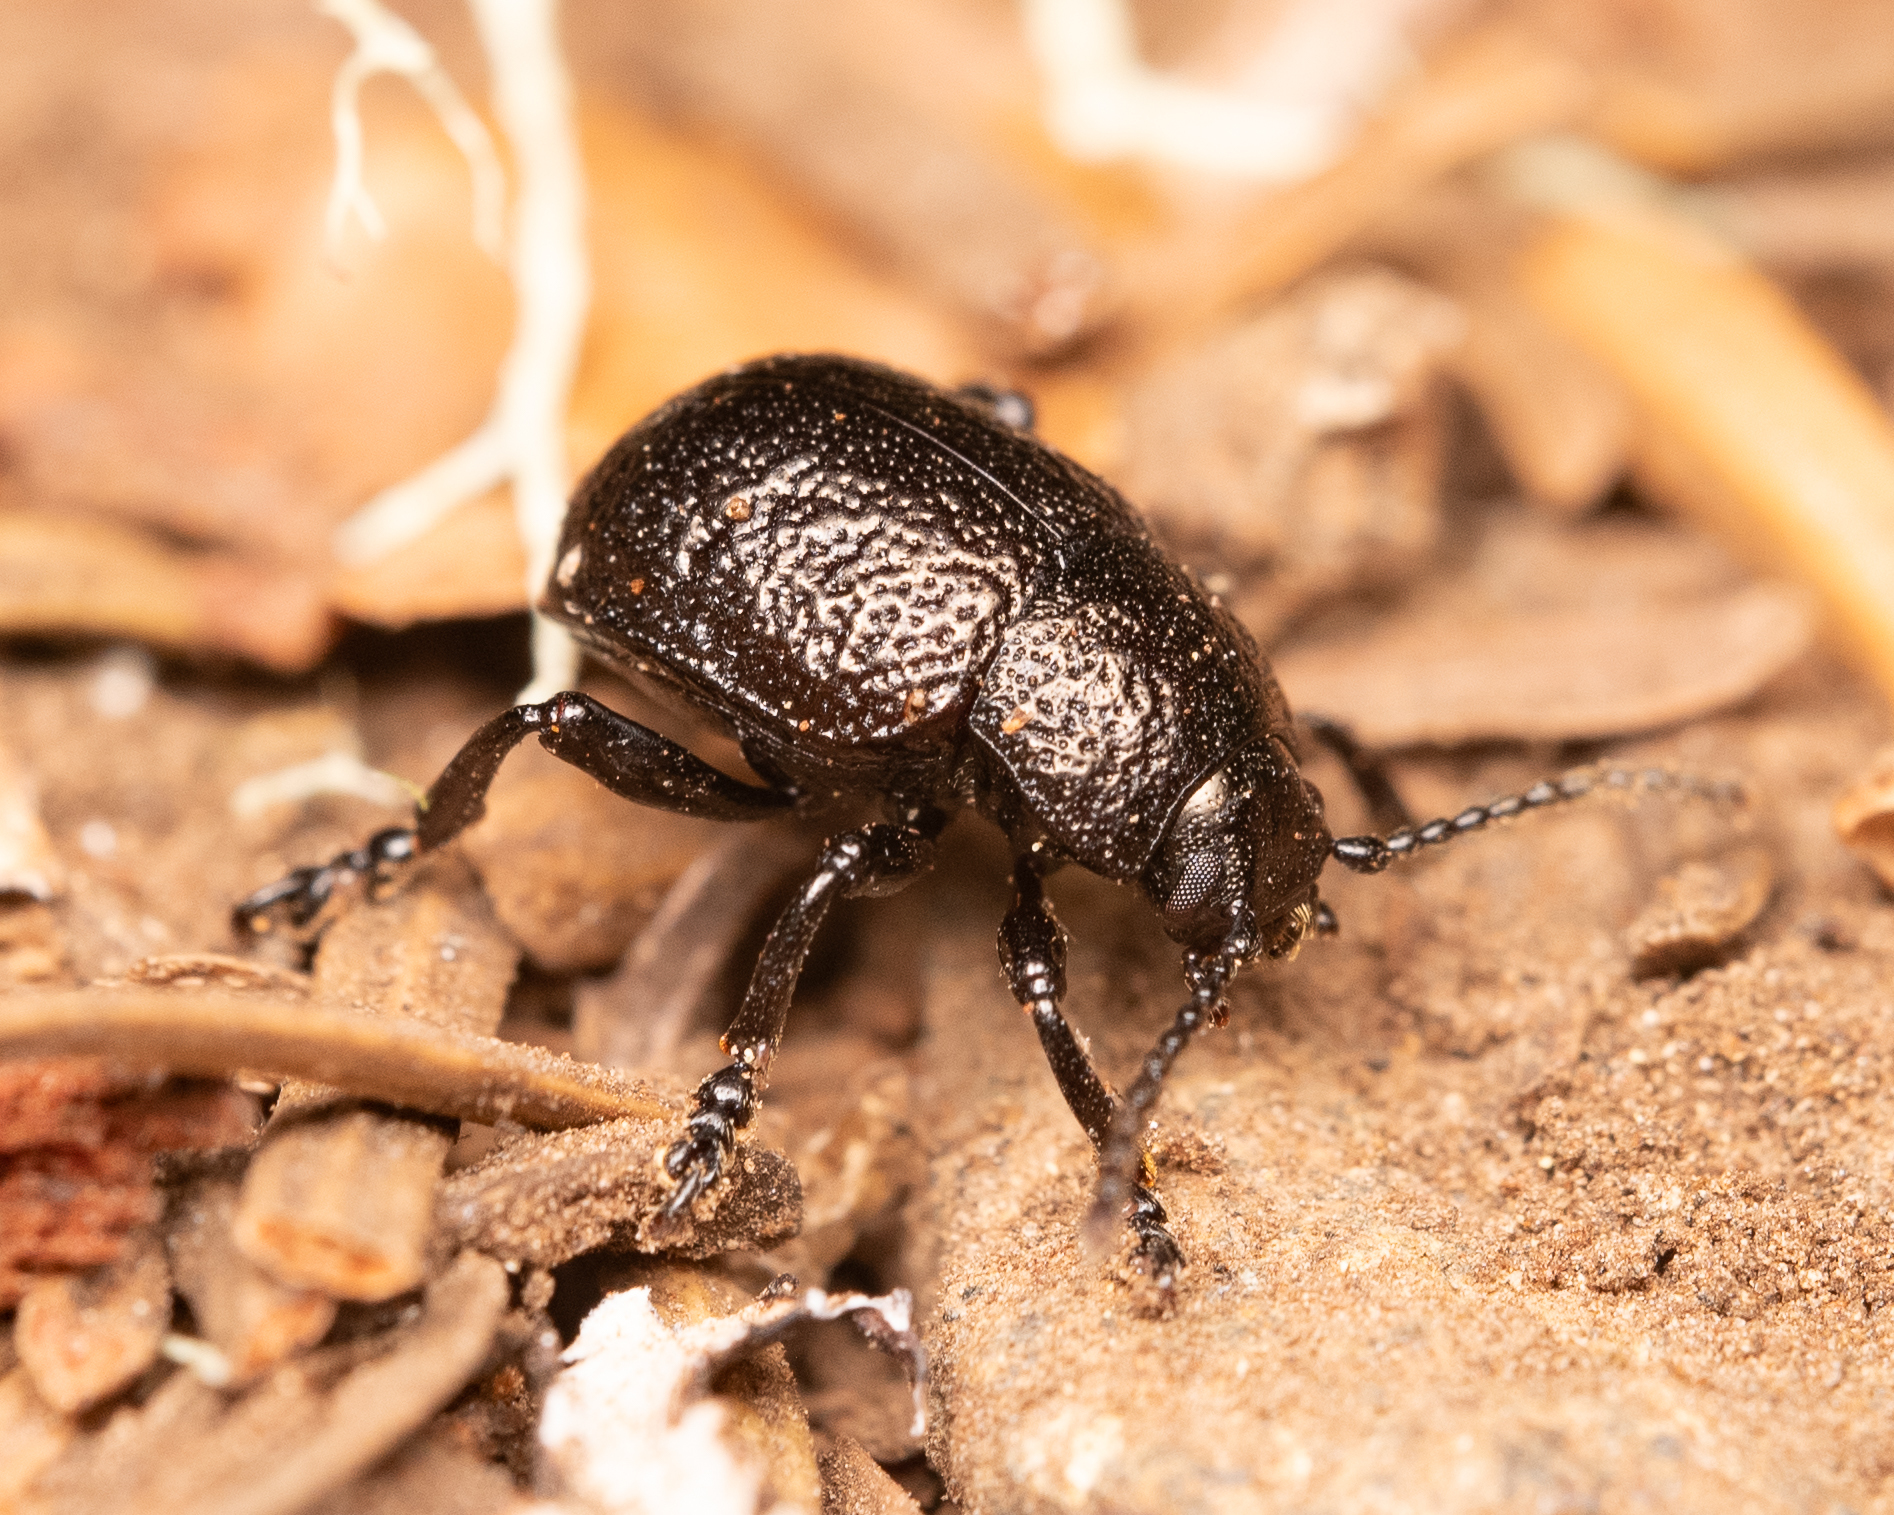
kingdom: Animalia
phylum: Arthropoda
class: Insecta
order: Coleoptera
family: Chrysomelidae
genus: Timarcha
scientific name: Timarcha intricata
